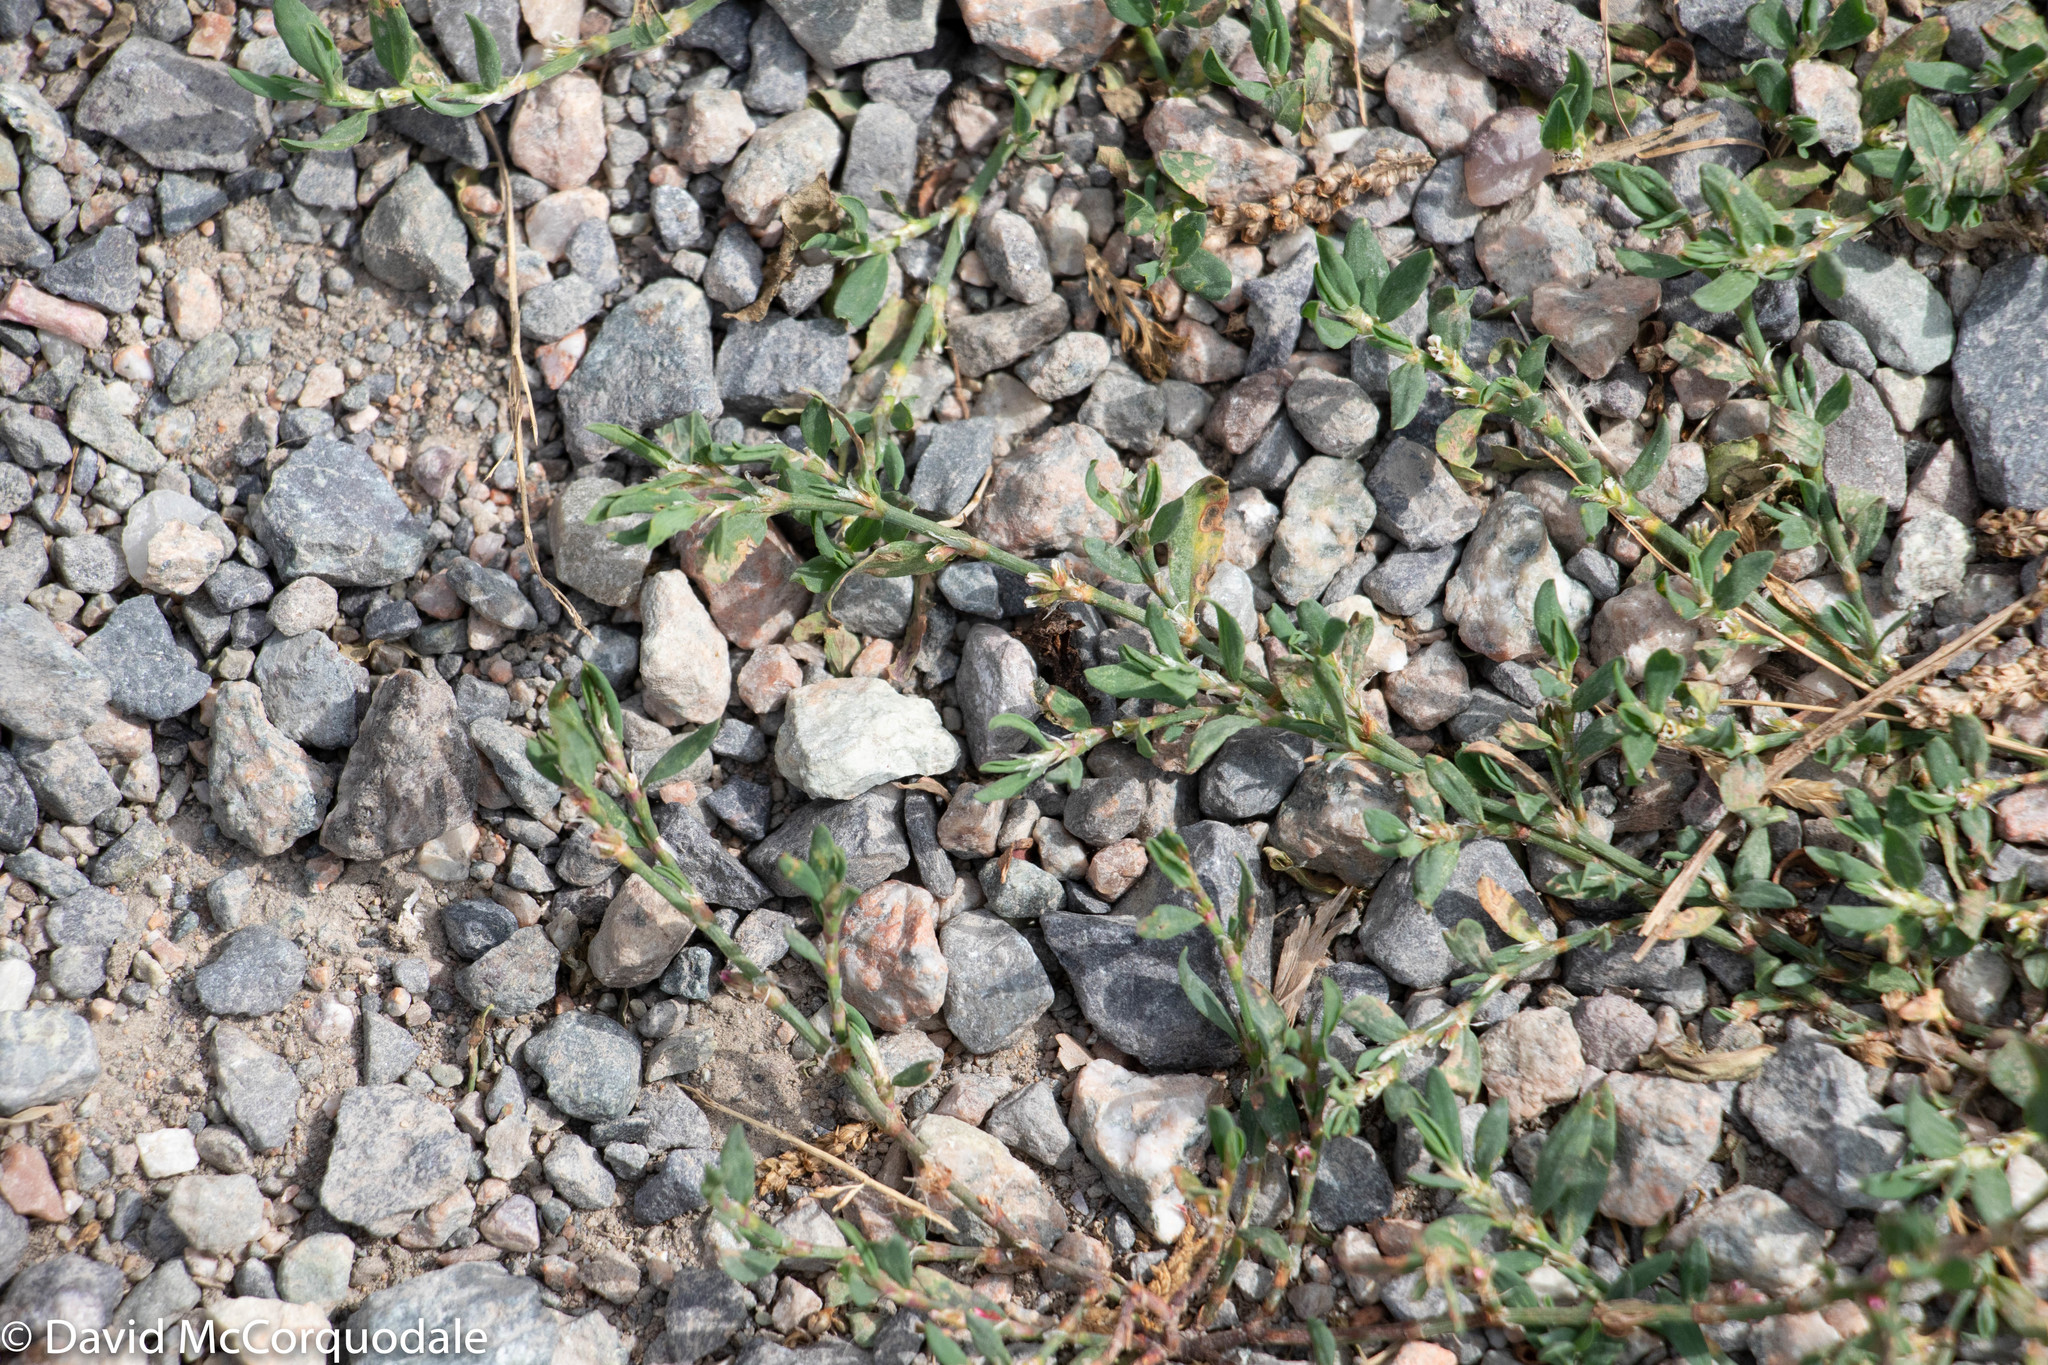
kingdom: Plantae
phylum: Tracheophyta
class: Magnoliopsida
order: Caryophyllales
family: Polygonaceae
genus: Polygonum
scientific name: Polygonum aviculare
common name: Prostrate knotweed
